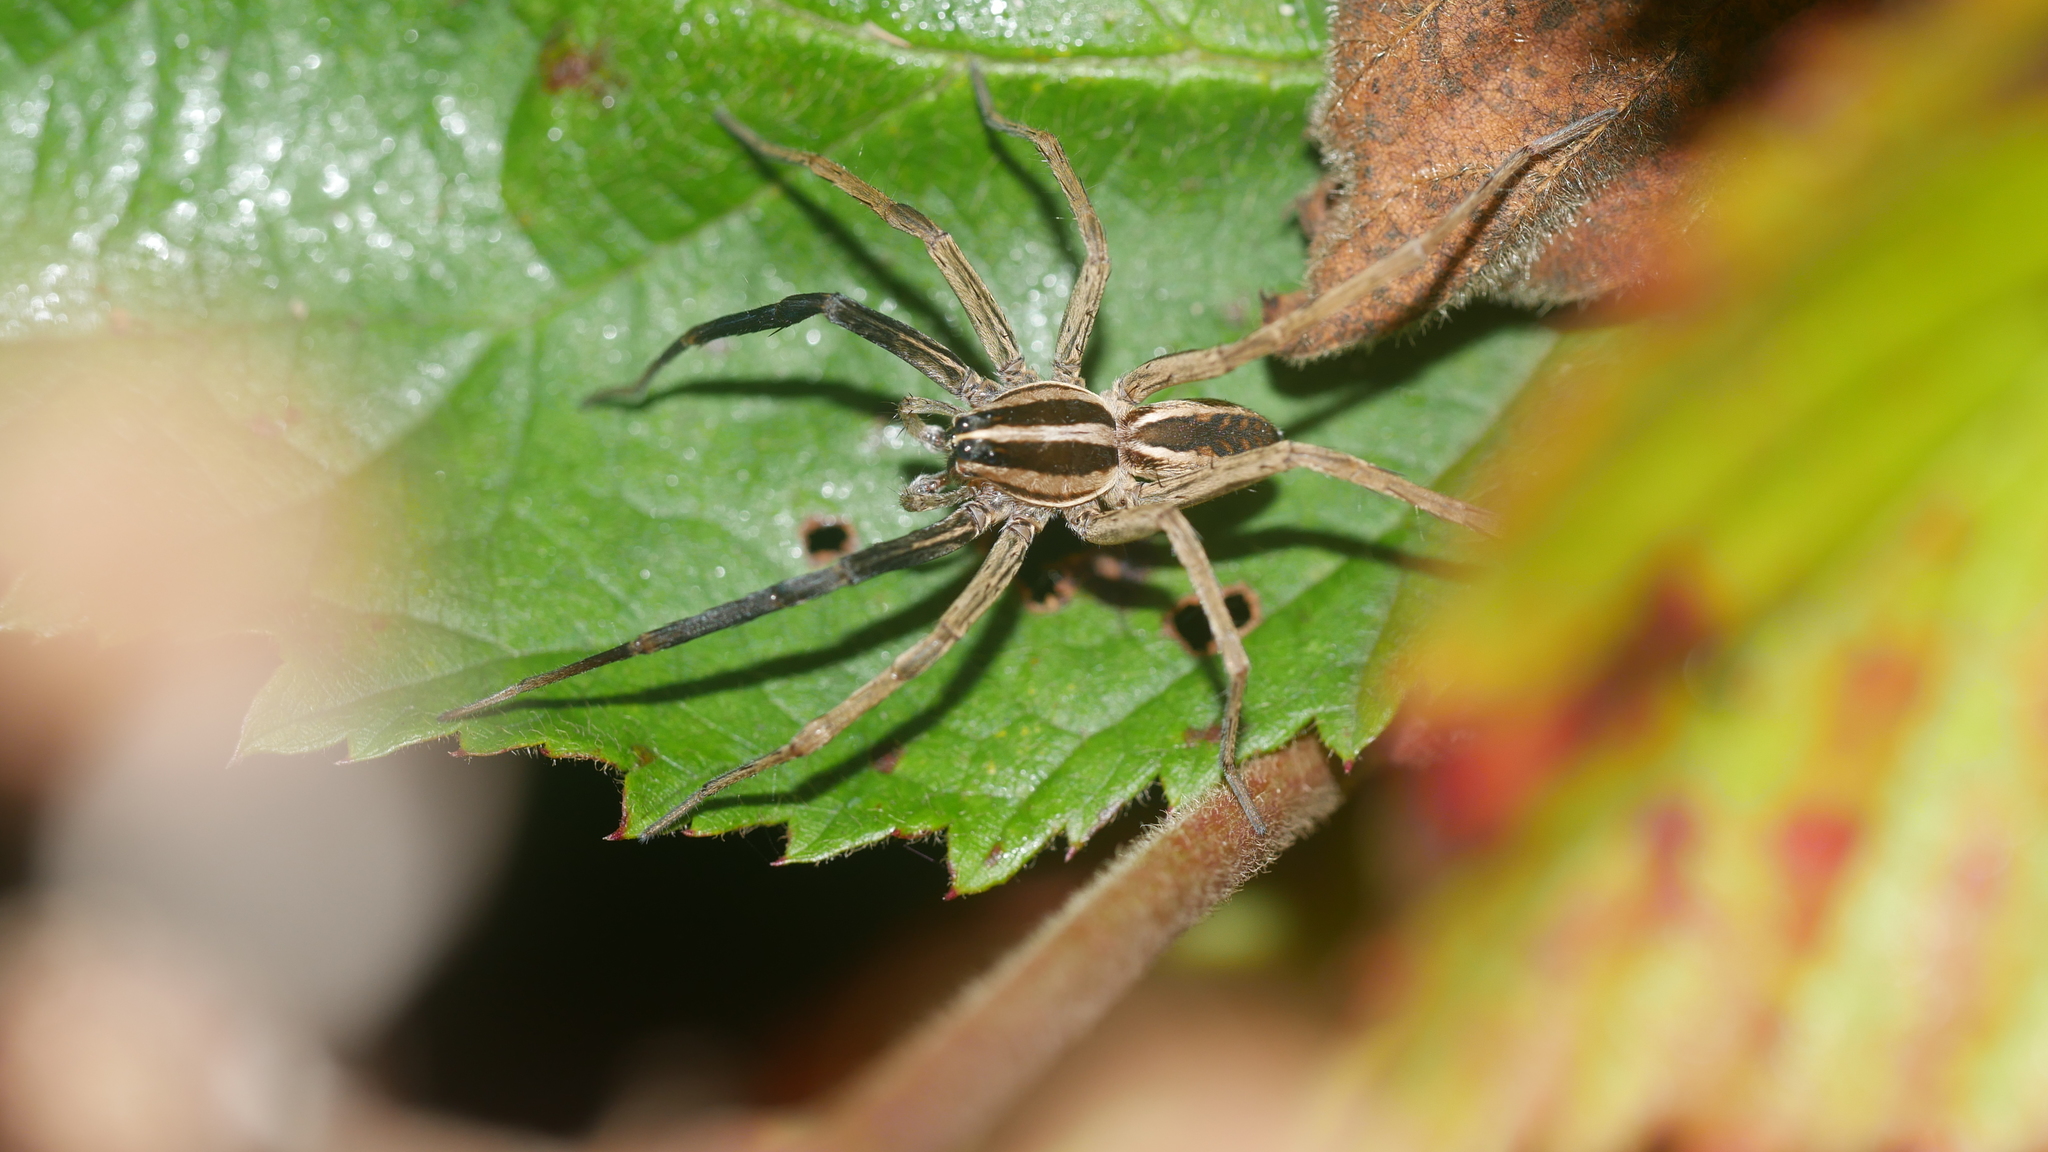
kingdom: Animalia
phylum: Arthropoda
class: Arachnida
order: Araneae
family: Lycosidae
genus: Rabidosa
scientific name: Rabidosa rabida
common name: Rabid wolf spider
